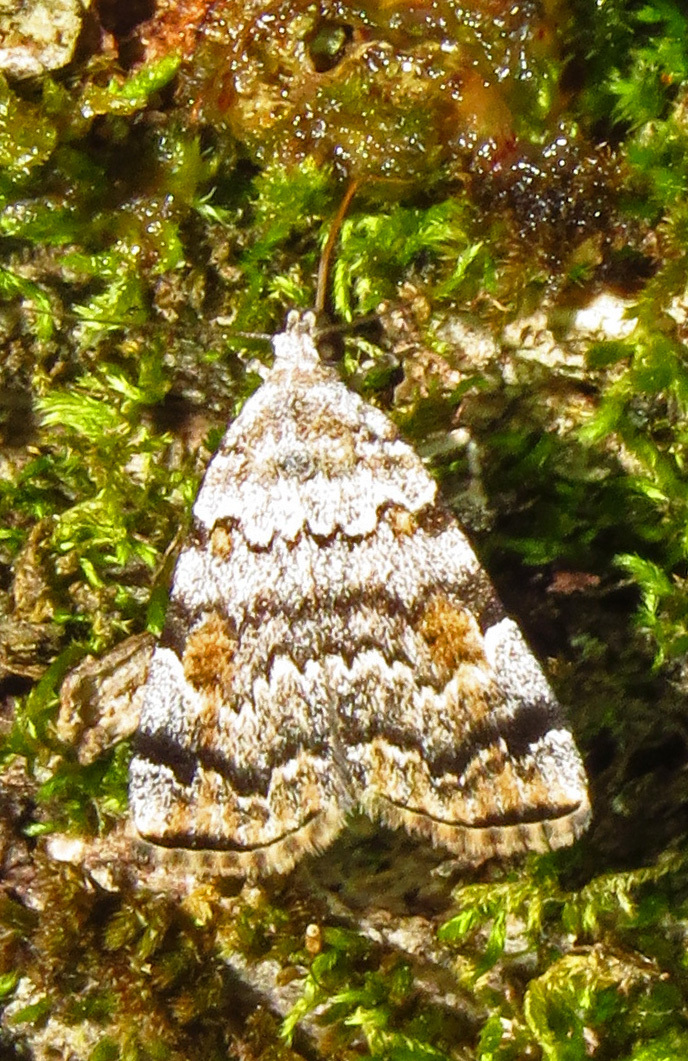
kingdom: Animalia
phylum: Arthropoda
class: Insecta
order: Lepidoptera
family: Erebidae
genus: Idia
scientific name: Idia americalis
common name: American idia moth
